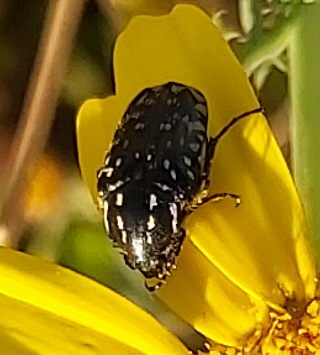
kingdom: Animalia
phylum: Arthropoda
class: Insecta
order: Coleoptera
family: Scarabaeidae
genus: Oxythyrea
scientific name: Oxythyrea noemi
